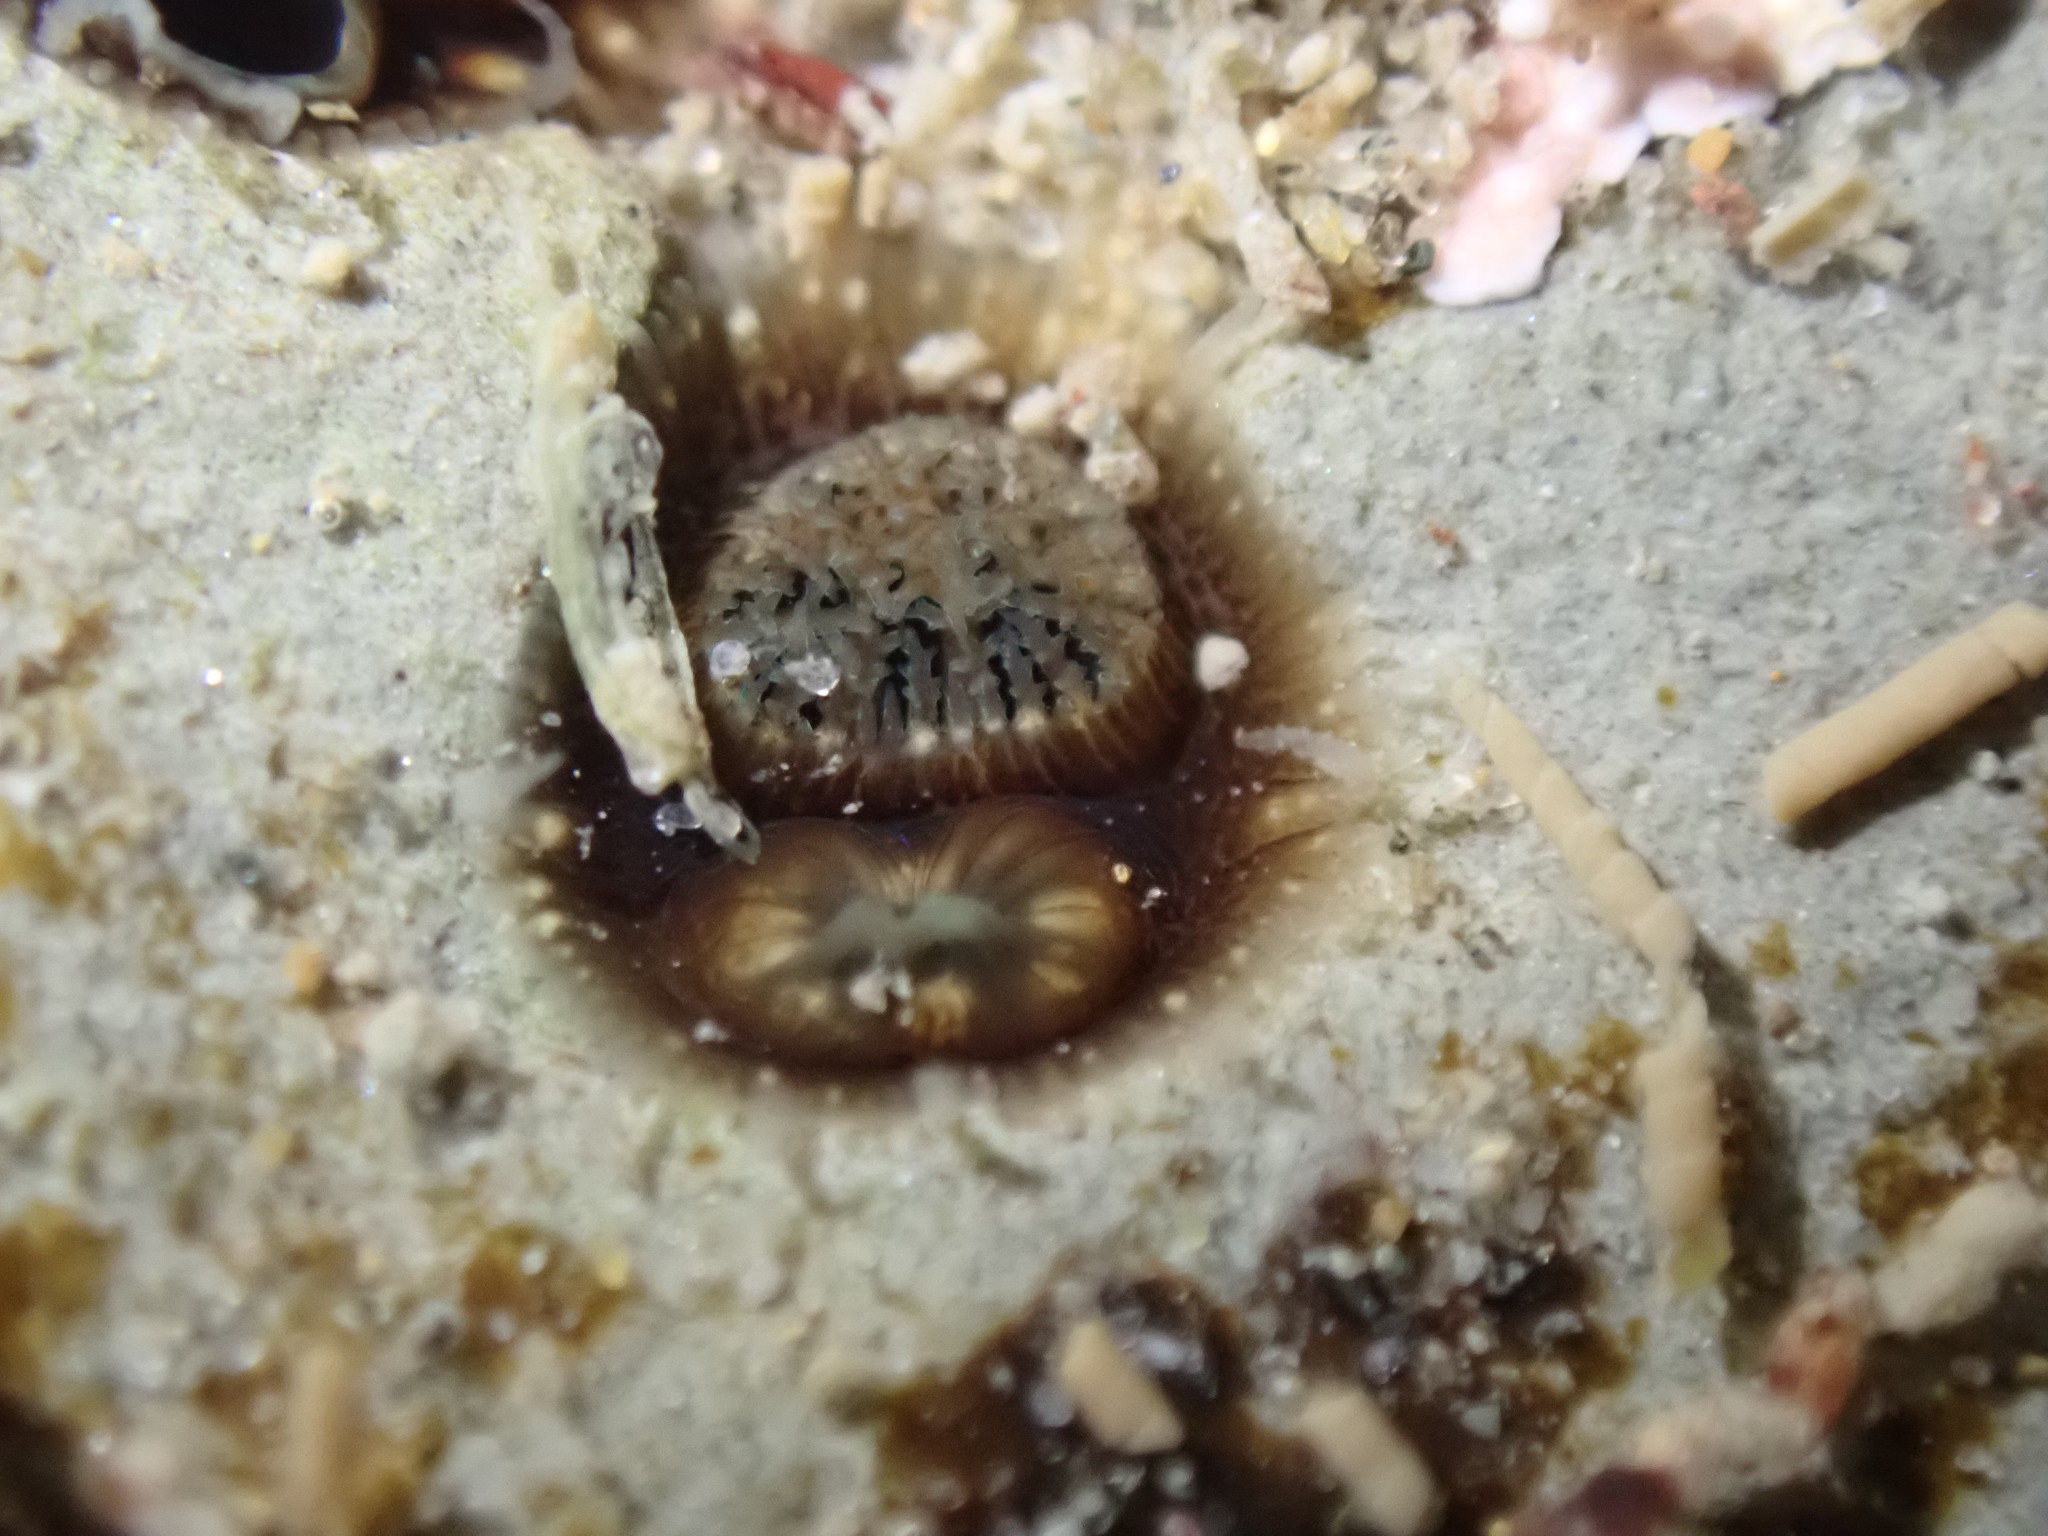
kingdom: Animalia
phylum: Mollusca
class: Bivalvia
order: Myida
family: Pholadidae
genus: Pholadidea
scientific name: Pholadidea suteri
